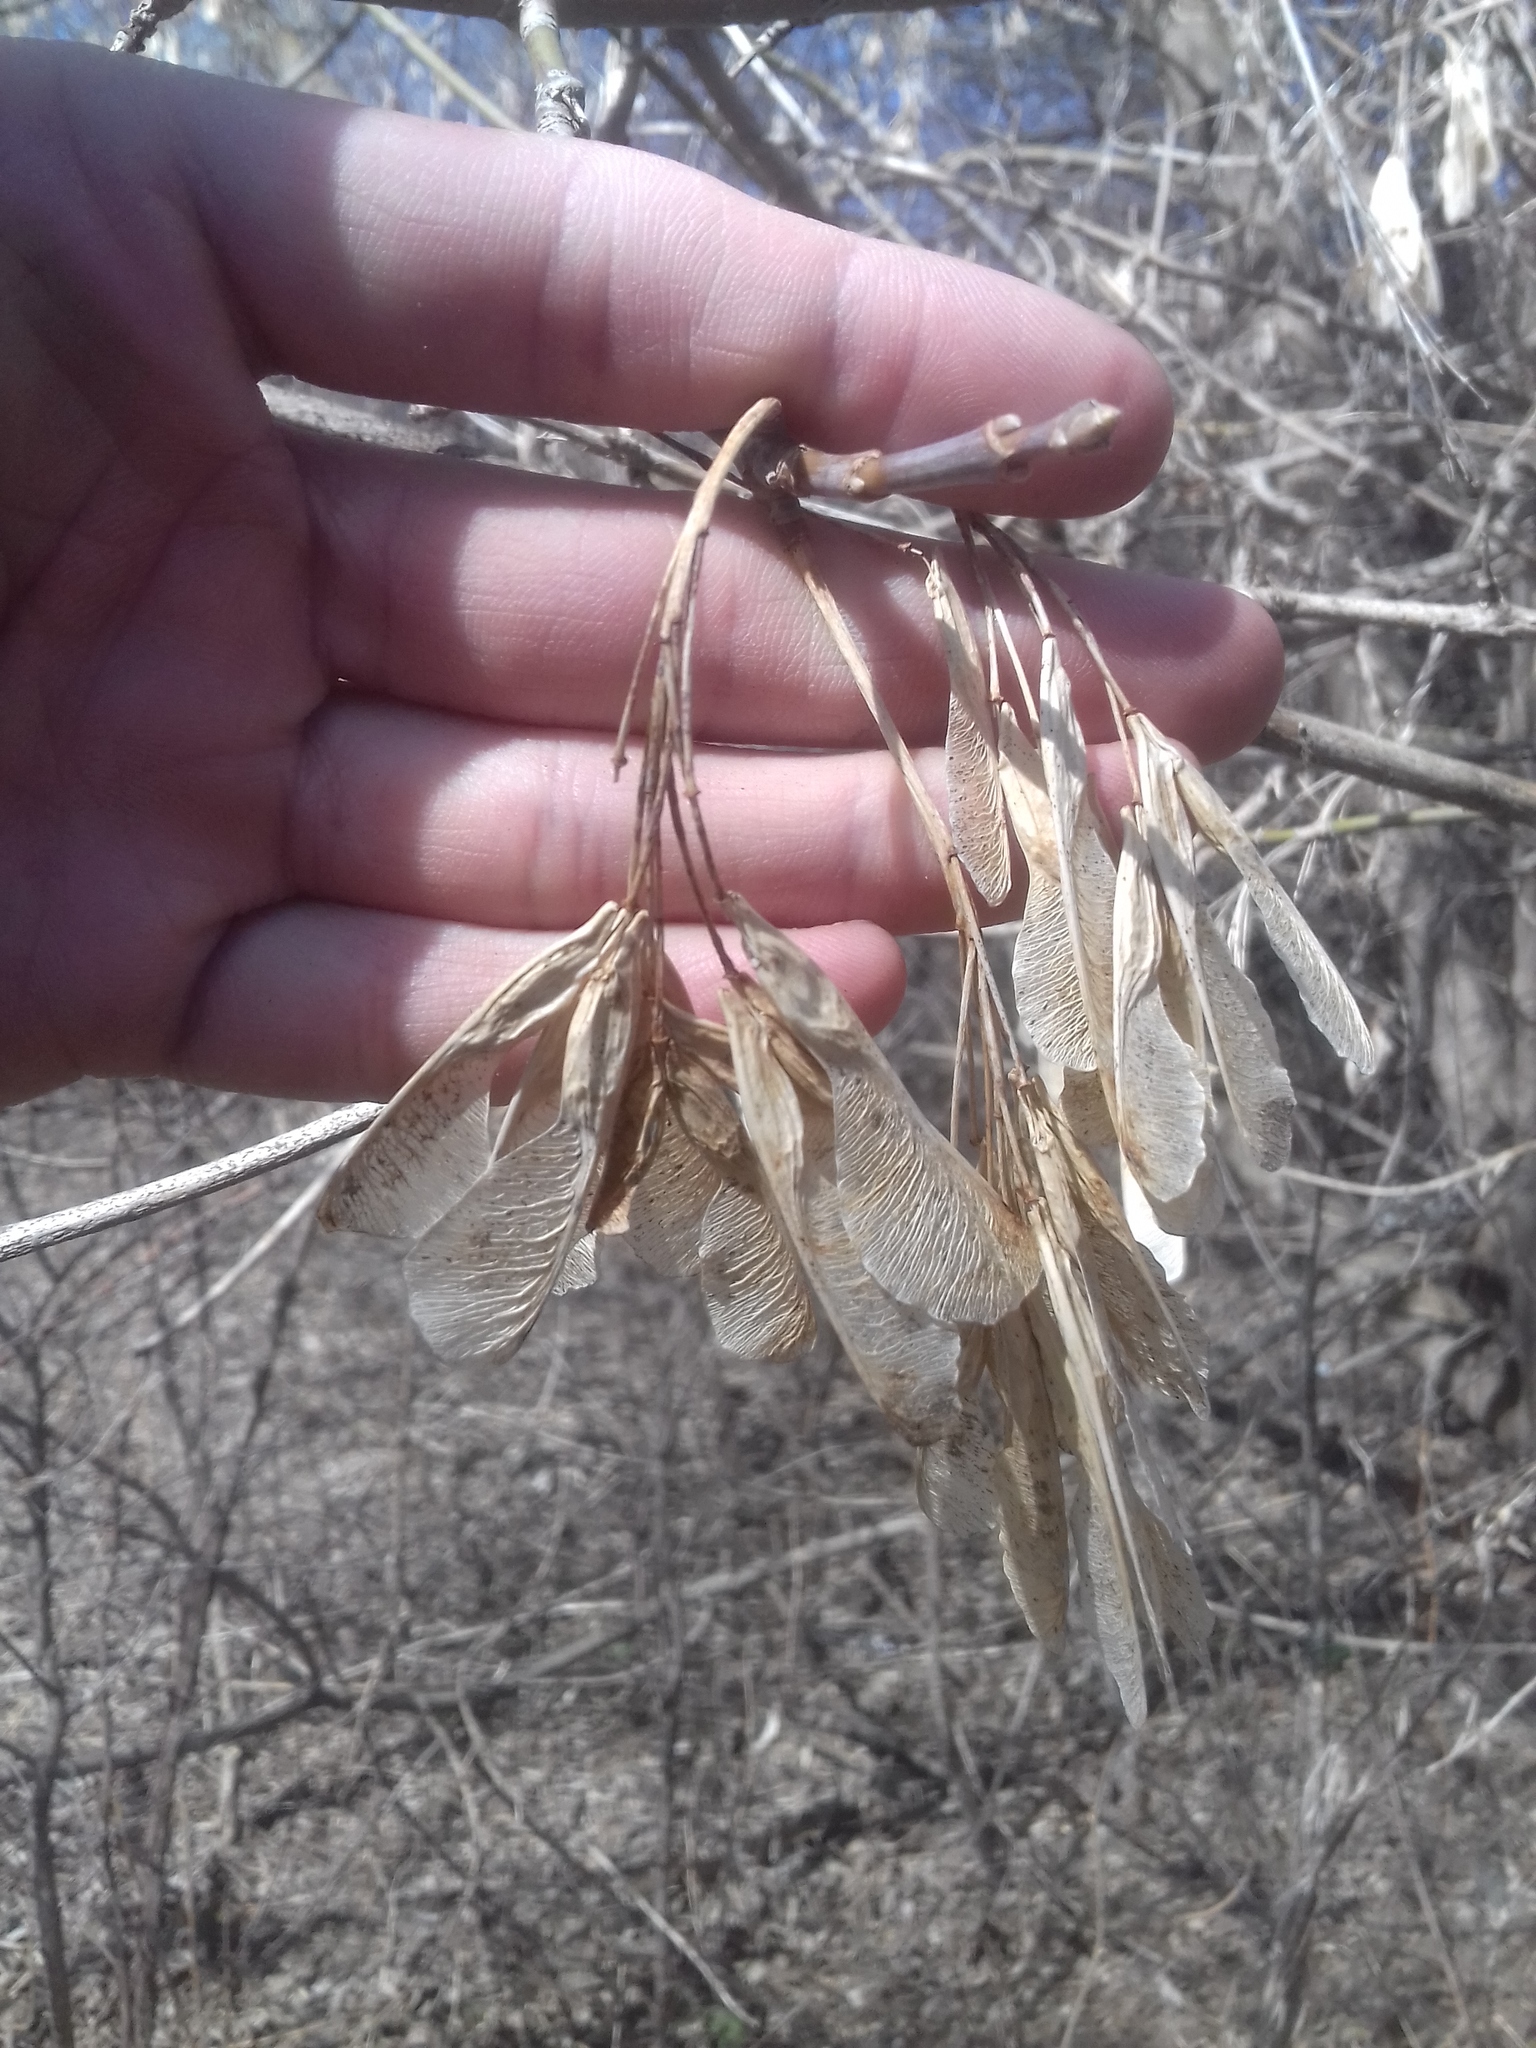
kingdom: Plantae
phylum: Tracheophyta
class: Magnoliopsida
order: Sapindales
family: Sapindaceae
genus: Acer
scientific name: Acer negundo
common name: Ashleaf maple
